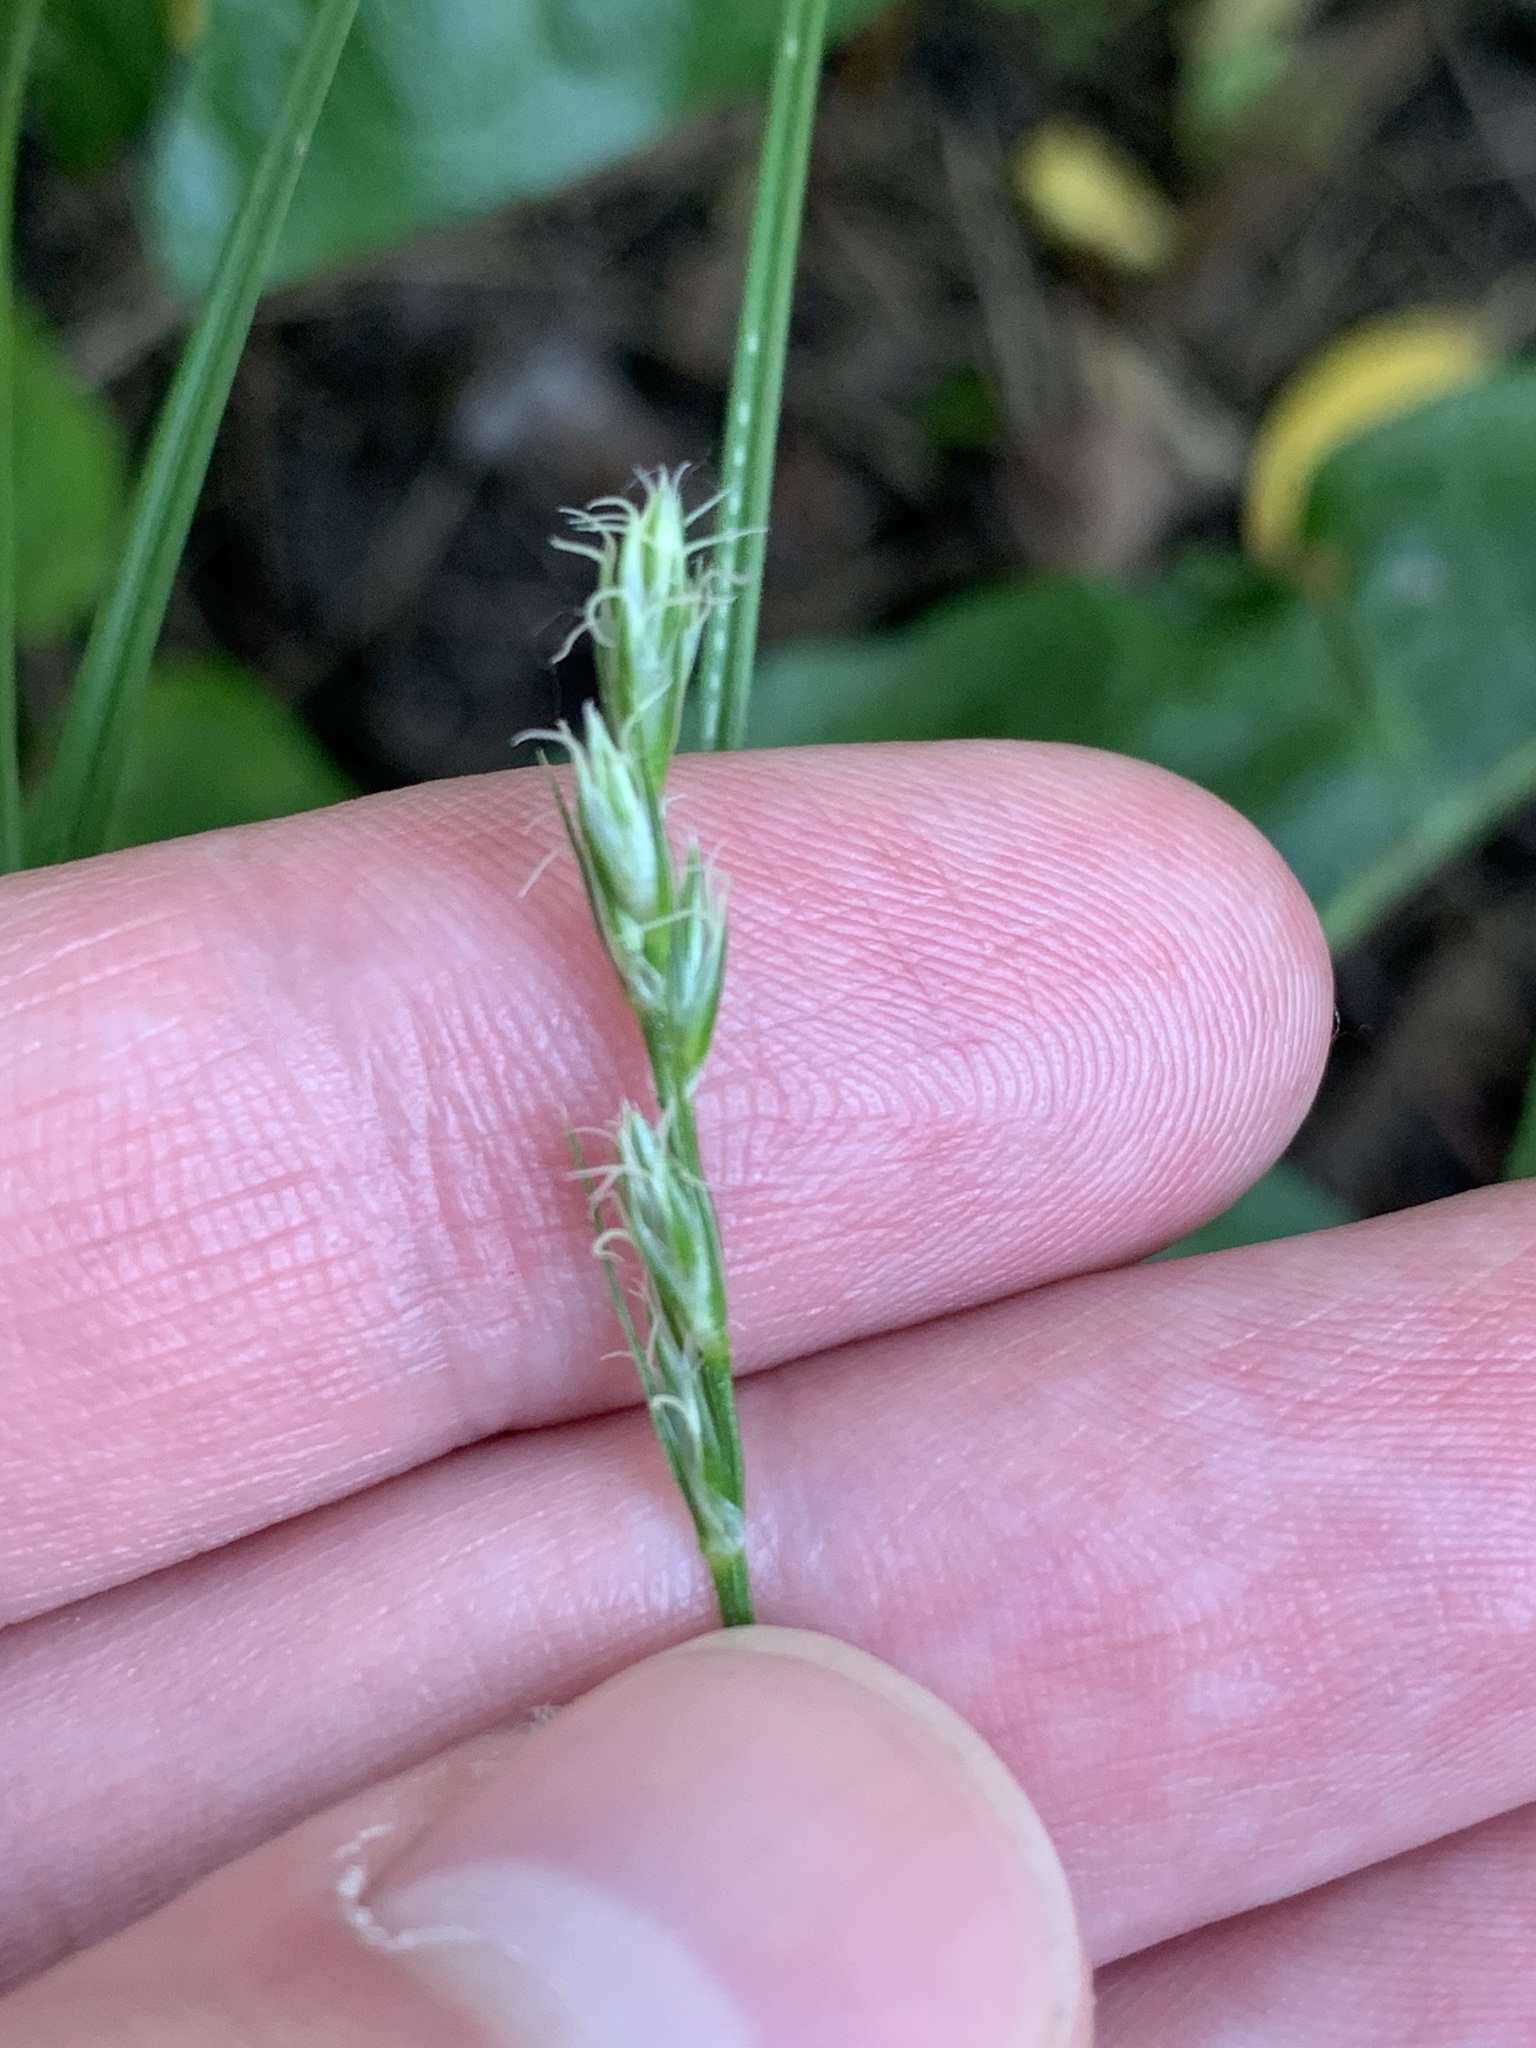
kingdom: Plantae
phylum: Tracheophyta
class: Liliopsida
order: Poales
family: Cyperaceae
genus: Carex
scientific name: Carex spicata
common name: Spiked sedge
